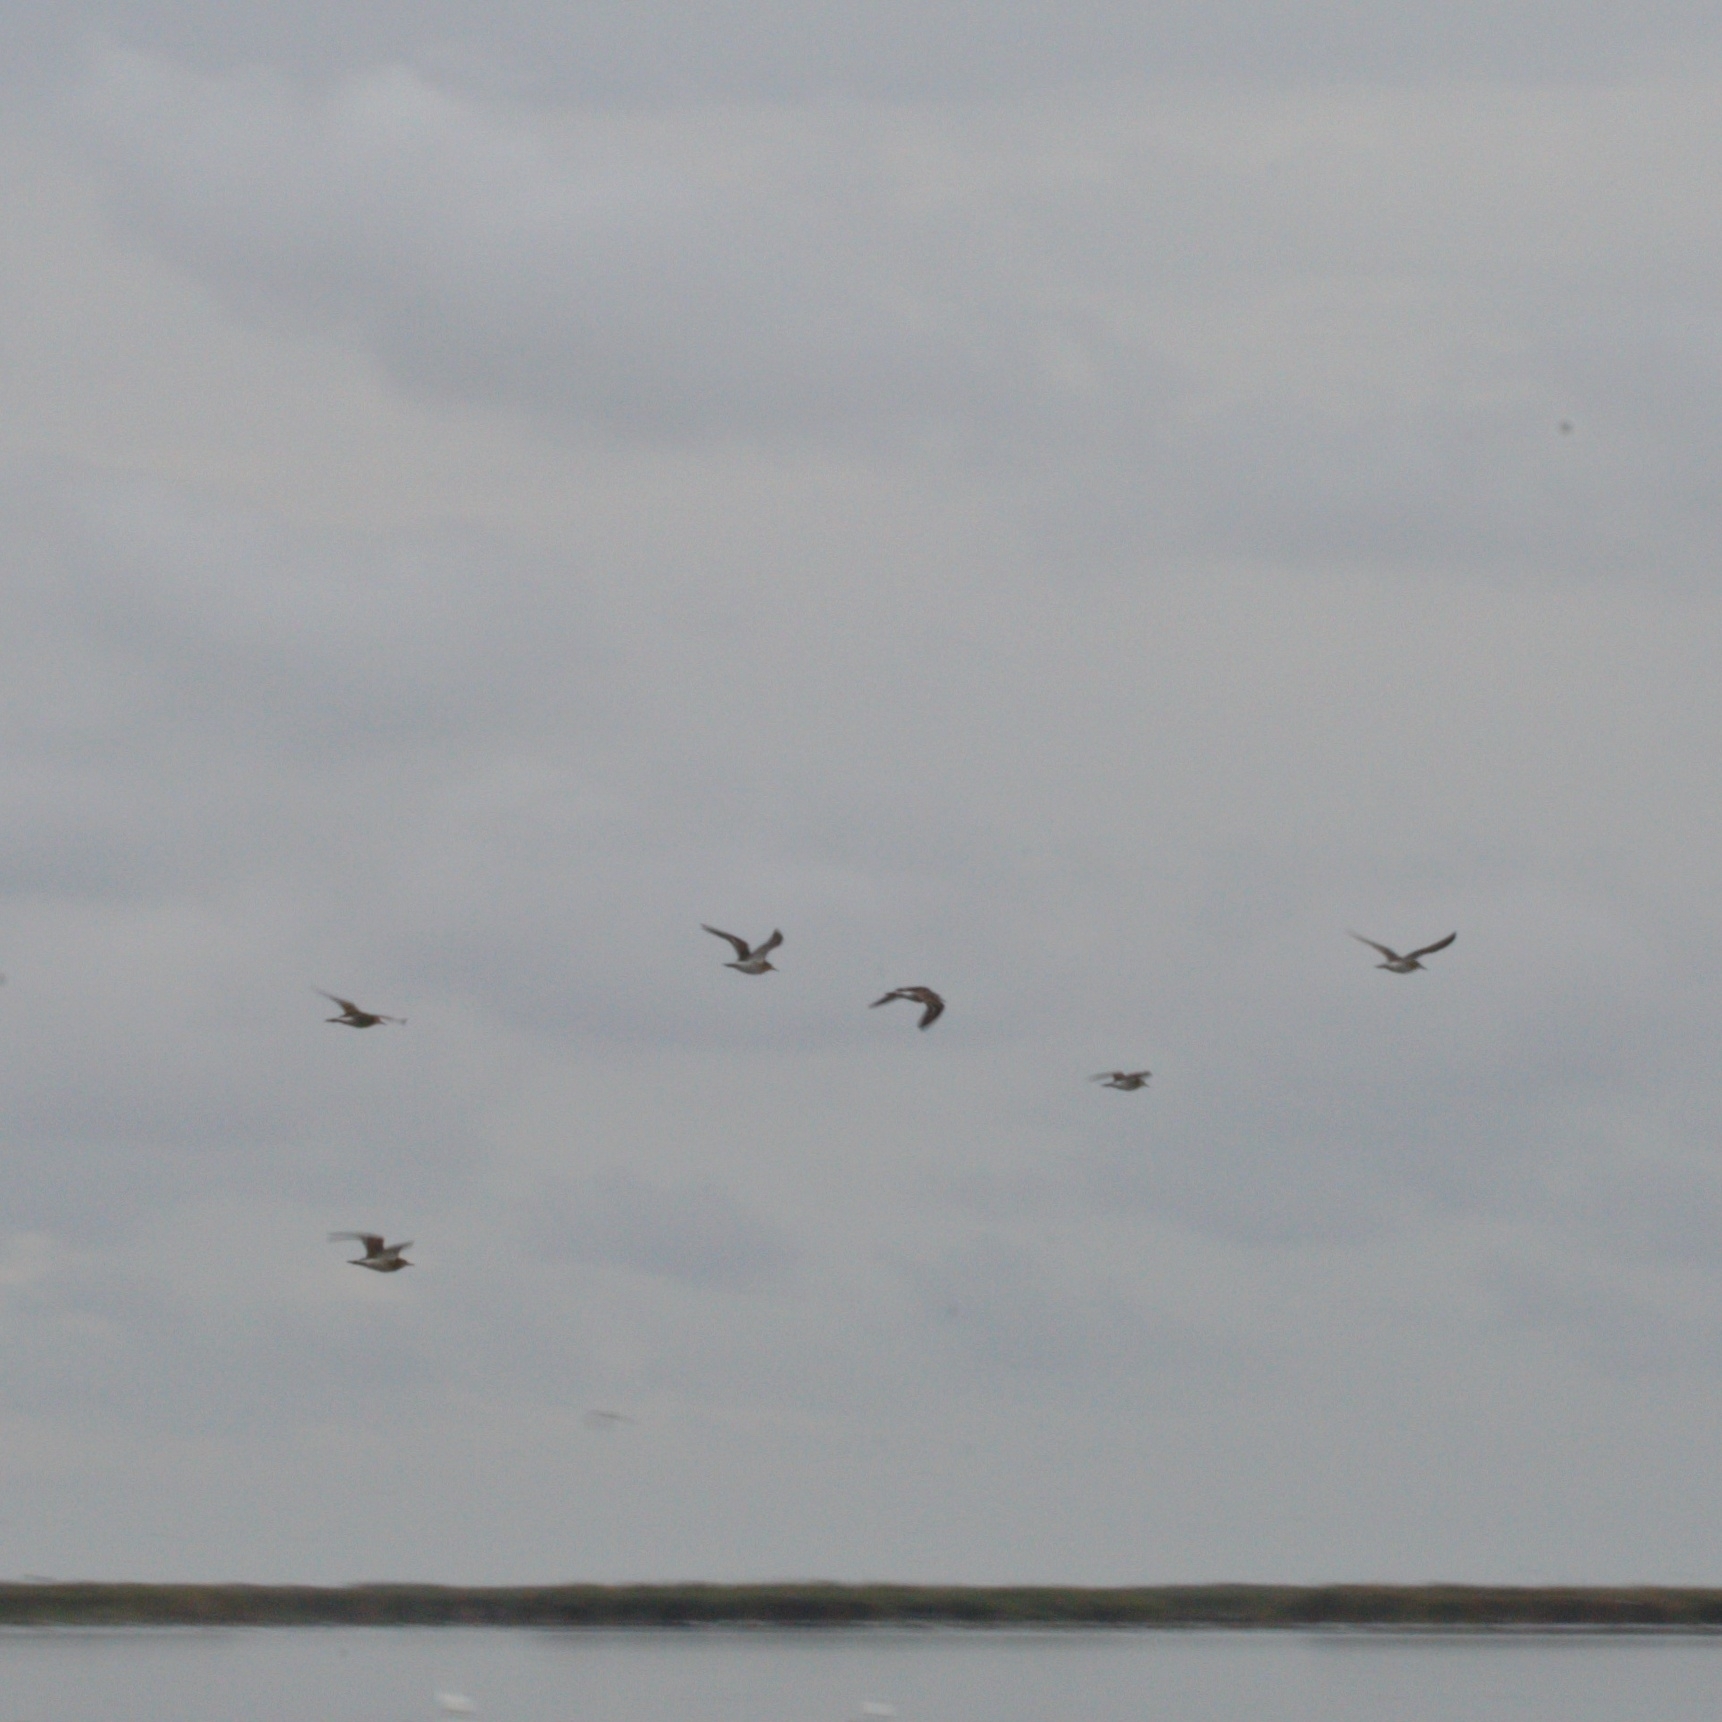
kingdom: Animalia
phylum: Chordata
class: Aves
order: Charadriiformes
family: Scolopacidae
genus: Calidris
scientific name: Calidris pugnax
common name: Ruff
